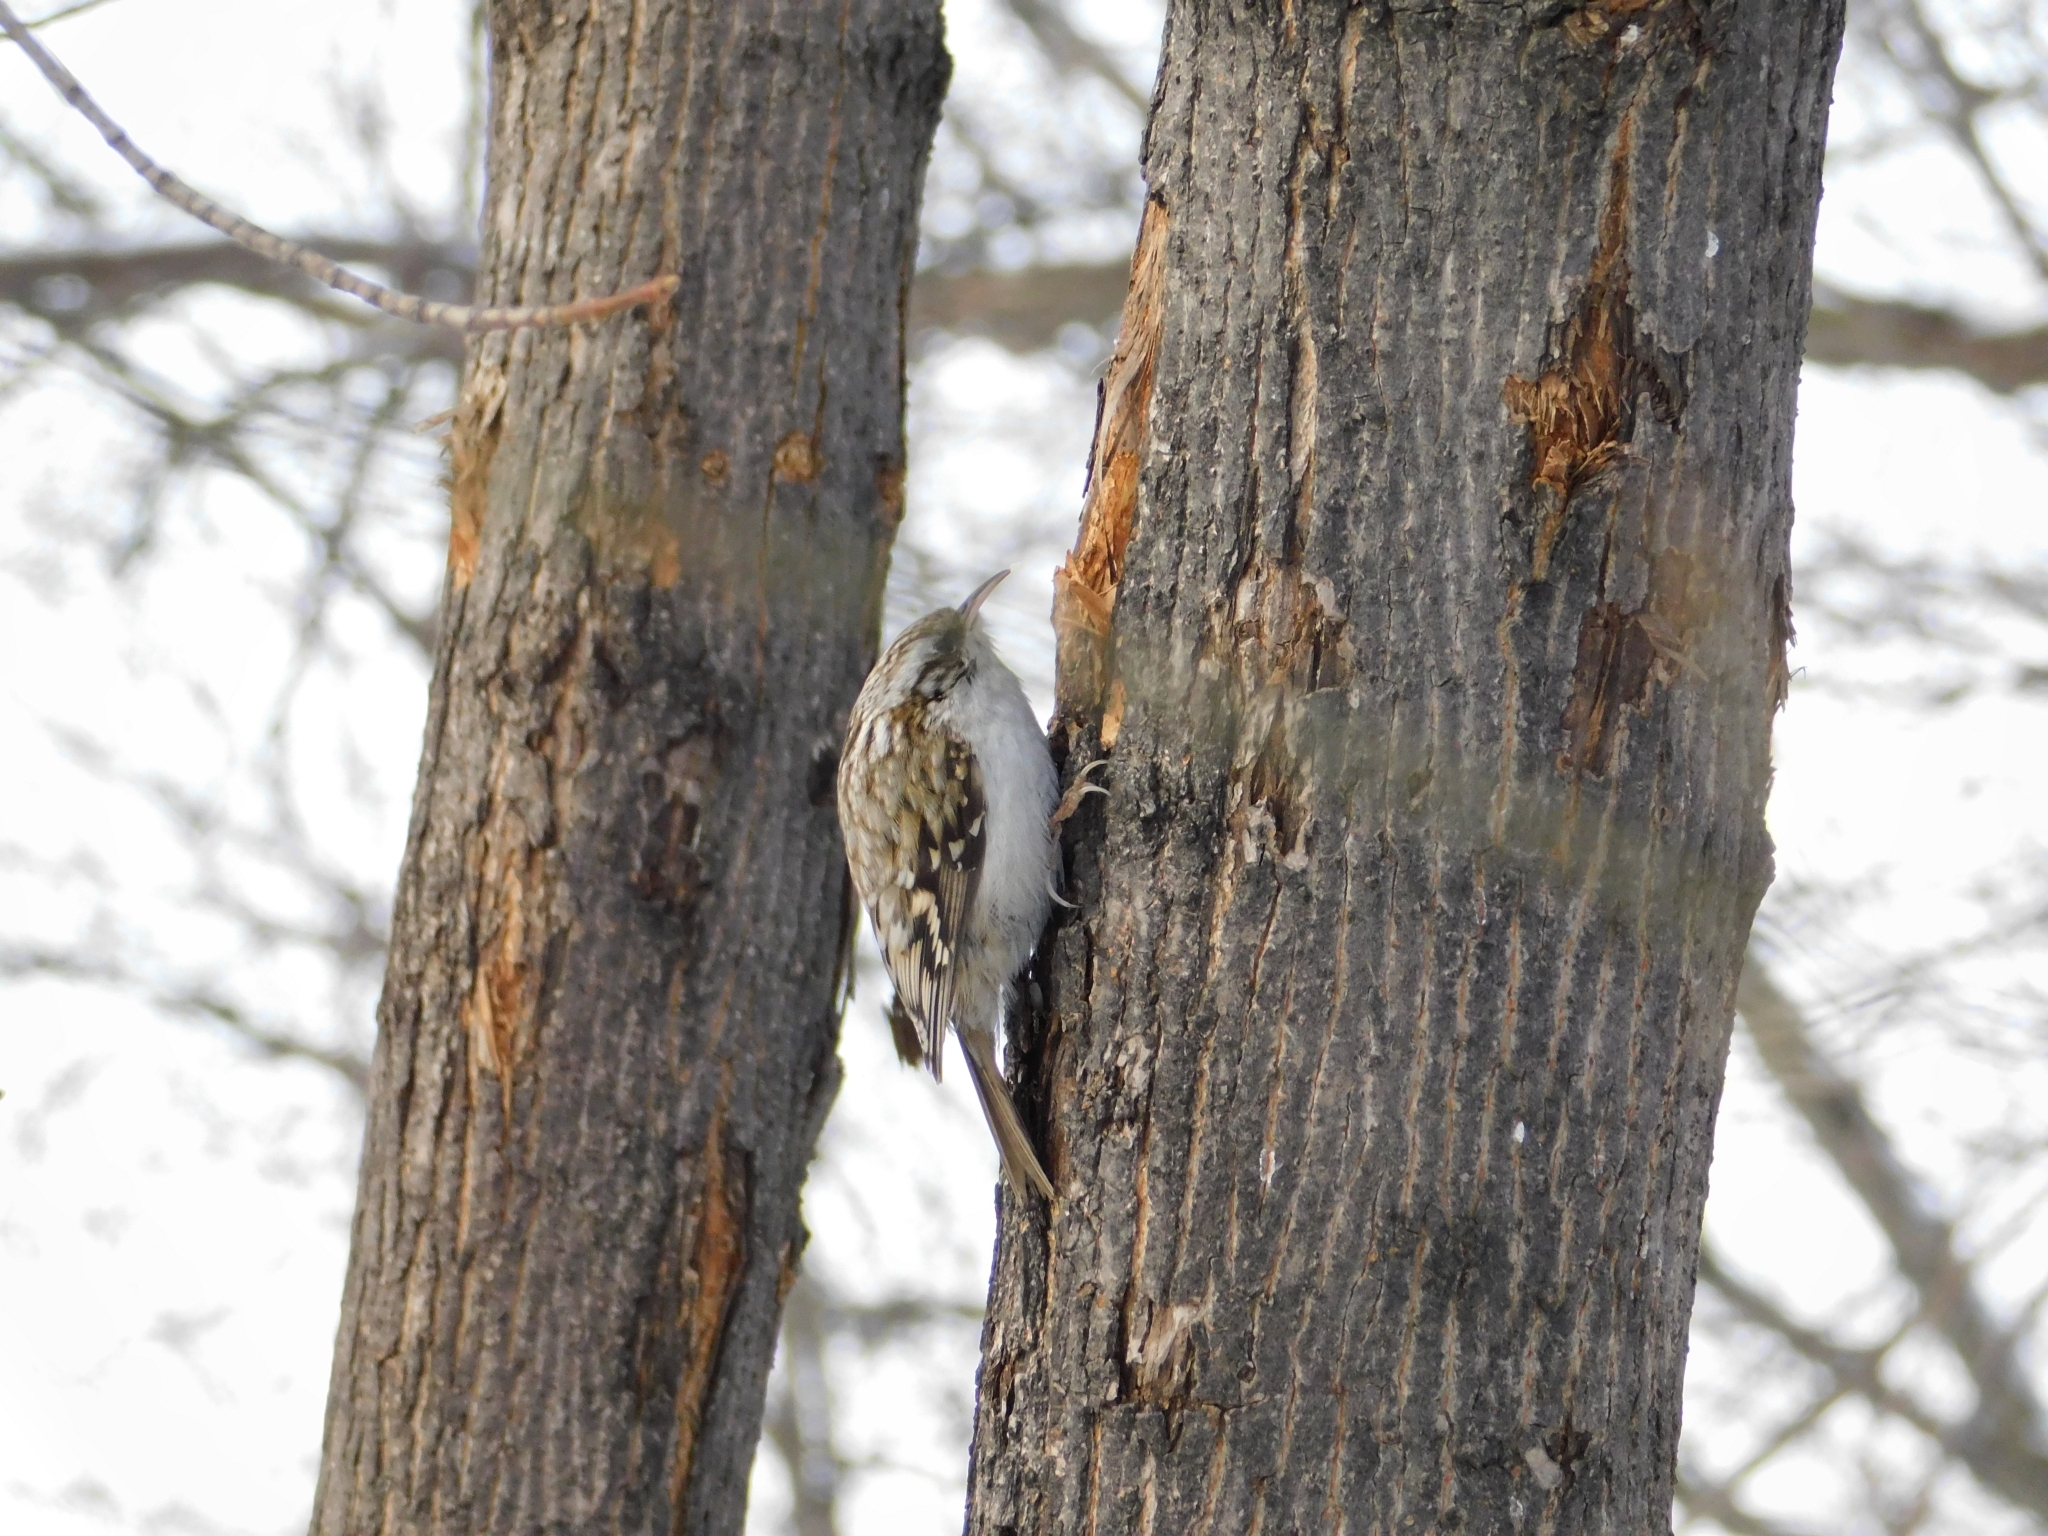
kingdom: Animalia
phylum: Chordata
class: Aves
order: Passeriformes
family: Certhiidae
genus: Certhia
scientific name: Certhia familiaris
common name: Eurasian treecreeper
